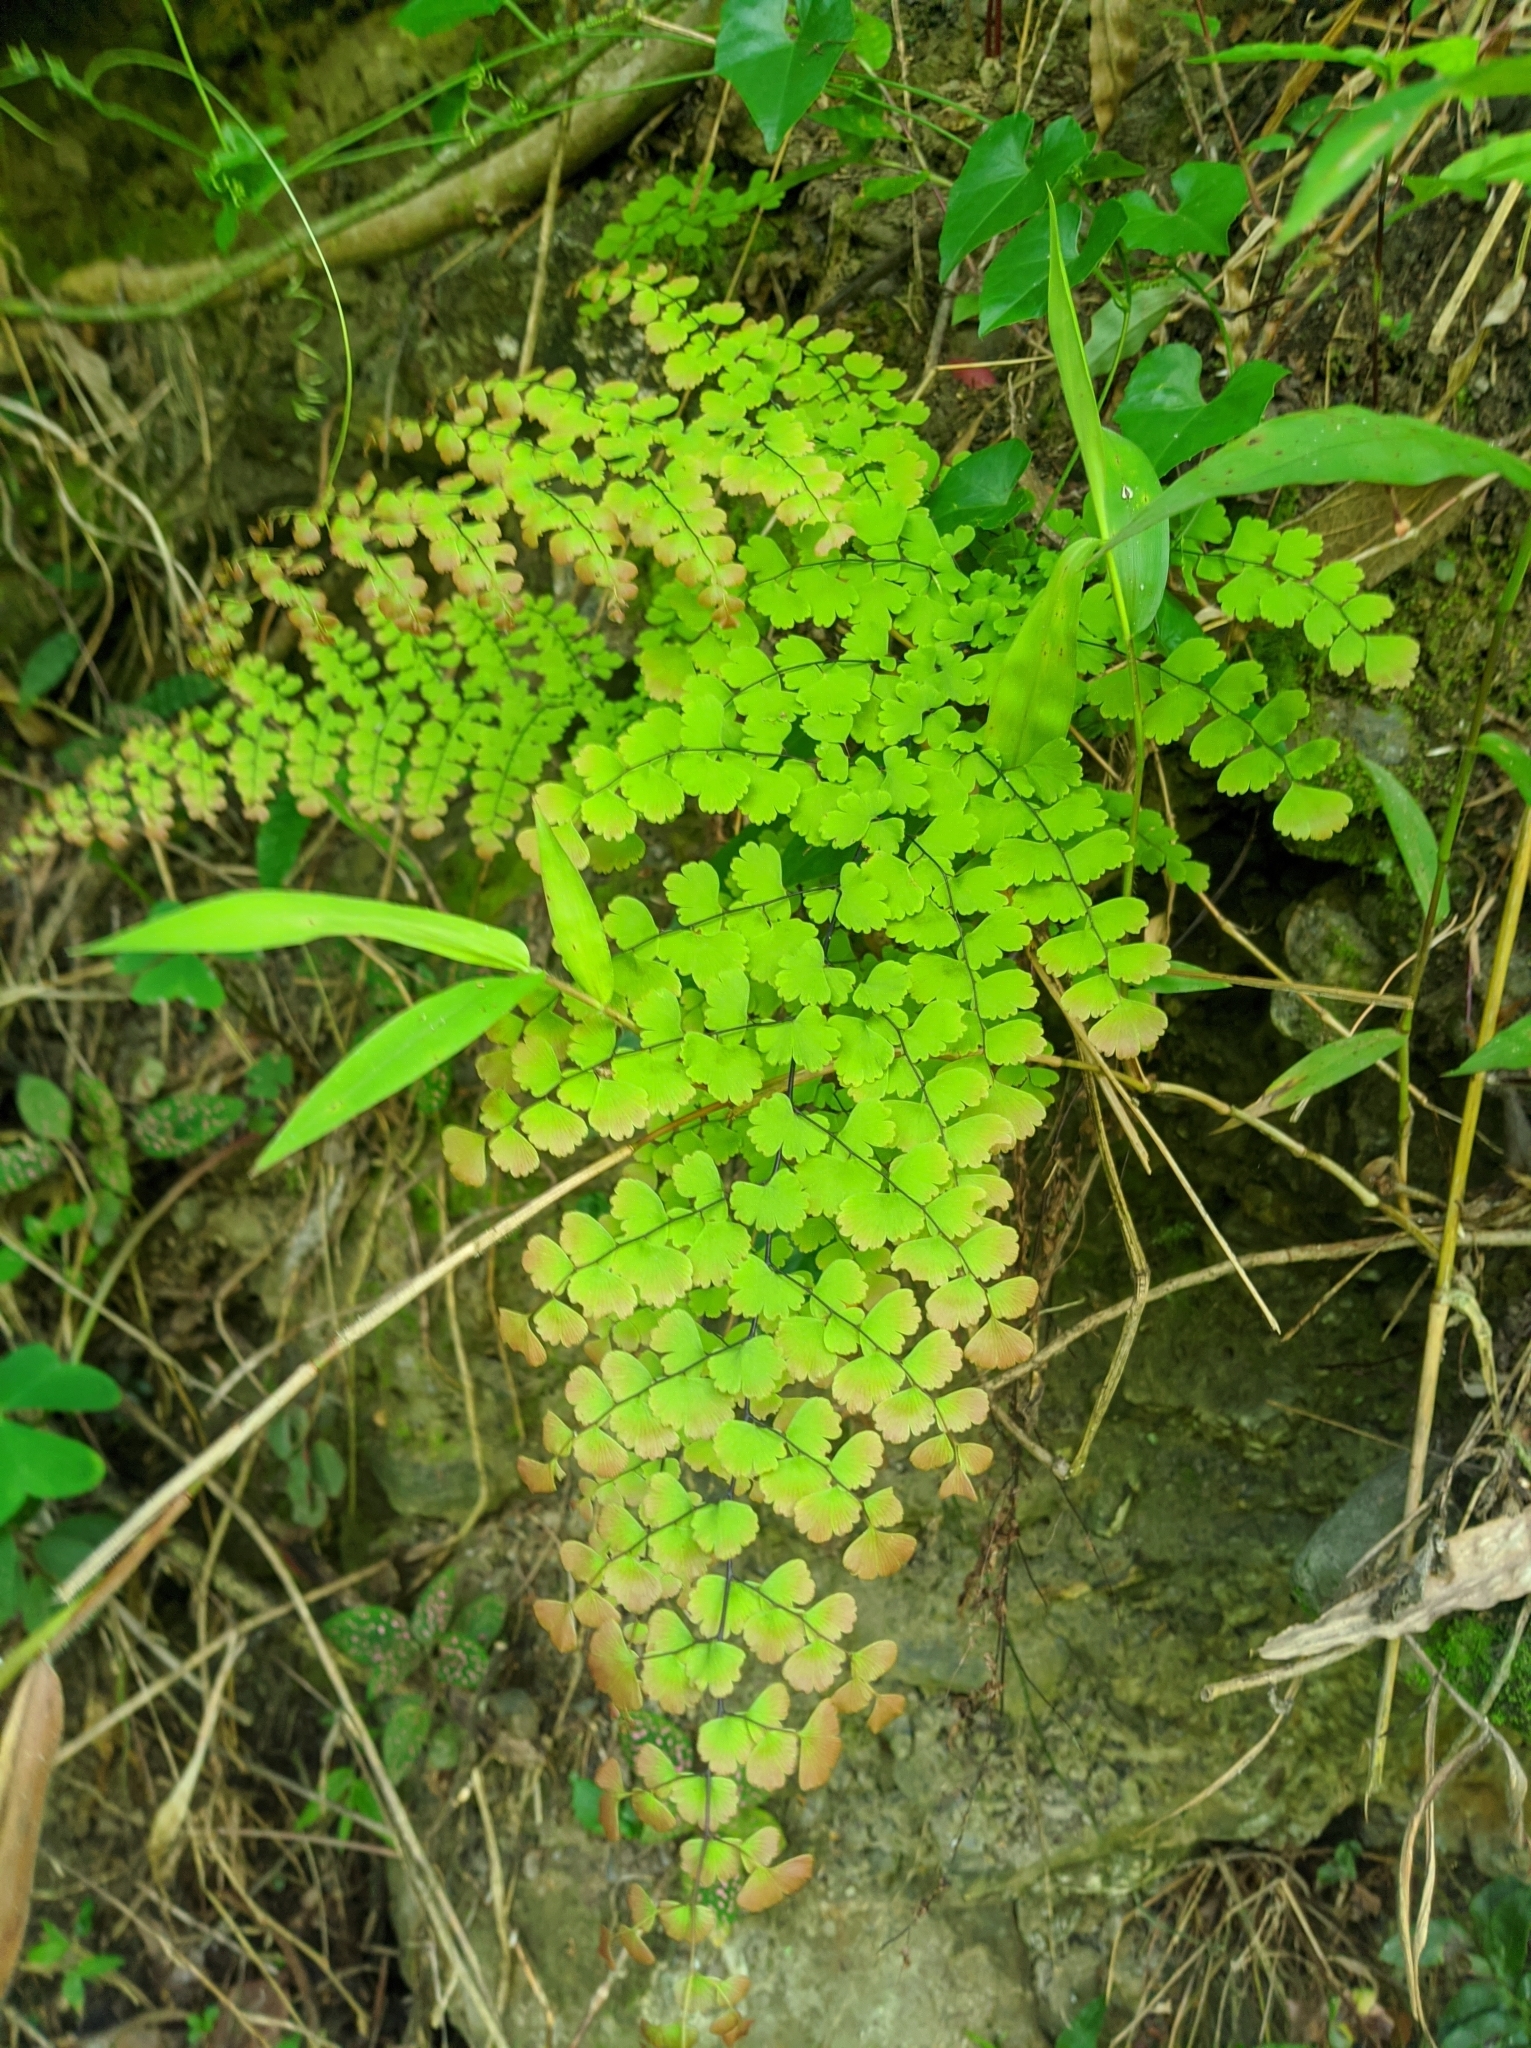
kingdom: Plantae
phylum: Tracheophyta
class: Polypodiopsida
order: Polypodiales
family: Pteridaceae
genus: Adiantum
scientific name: Adiantum concinnum
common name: Brittle maidenhair fern
